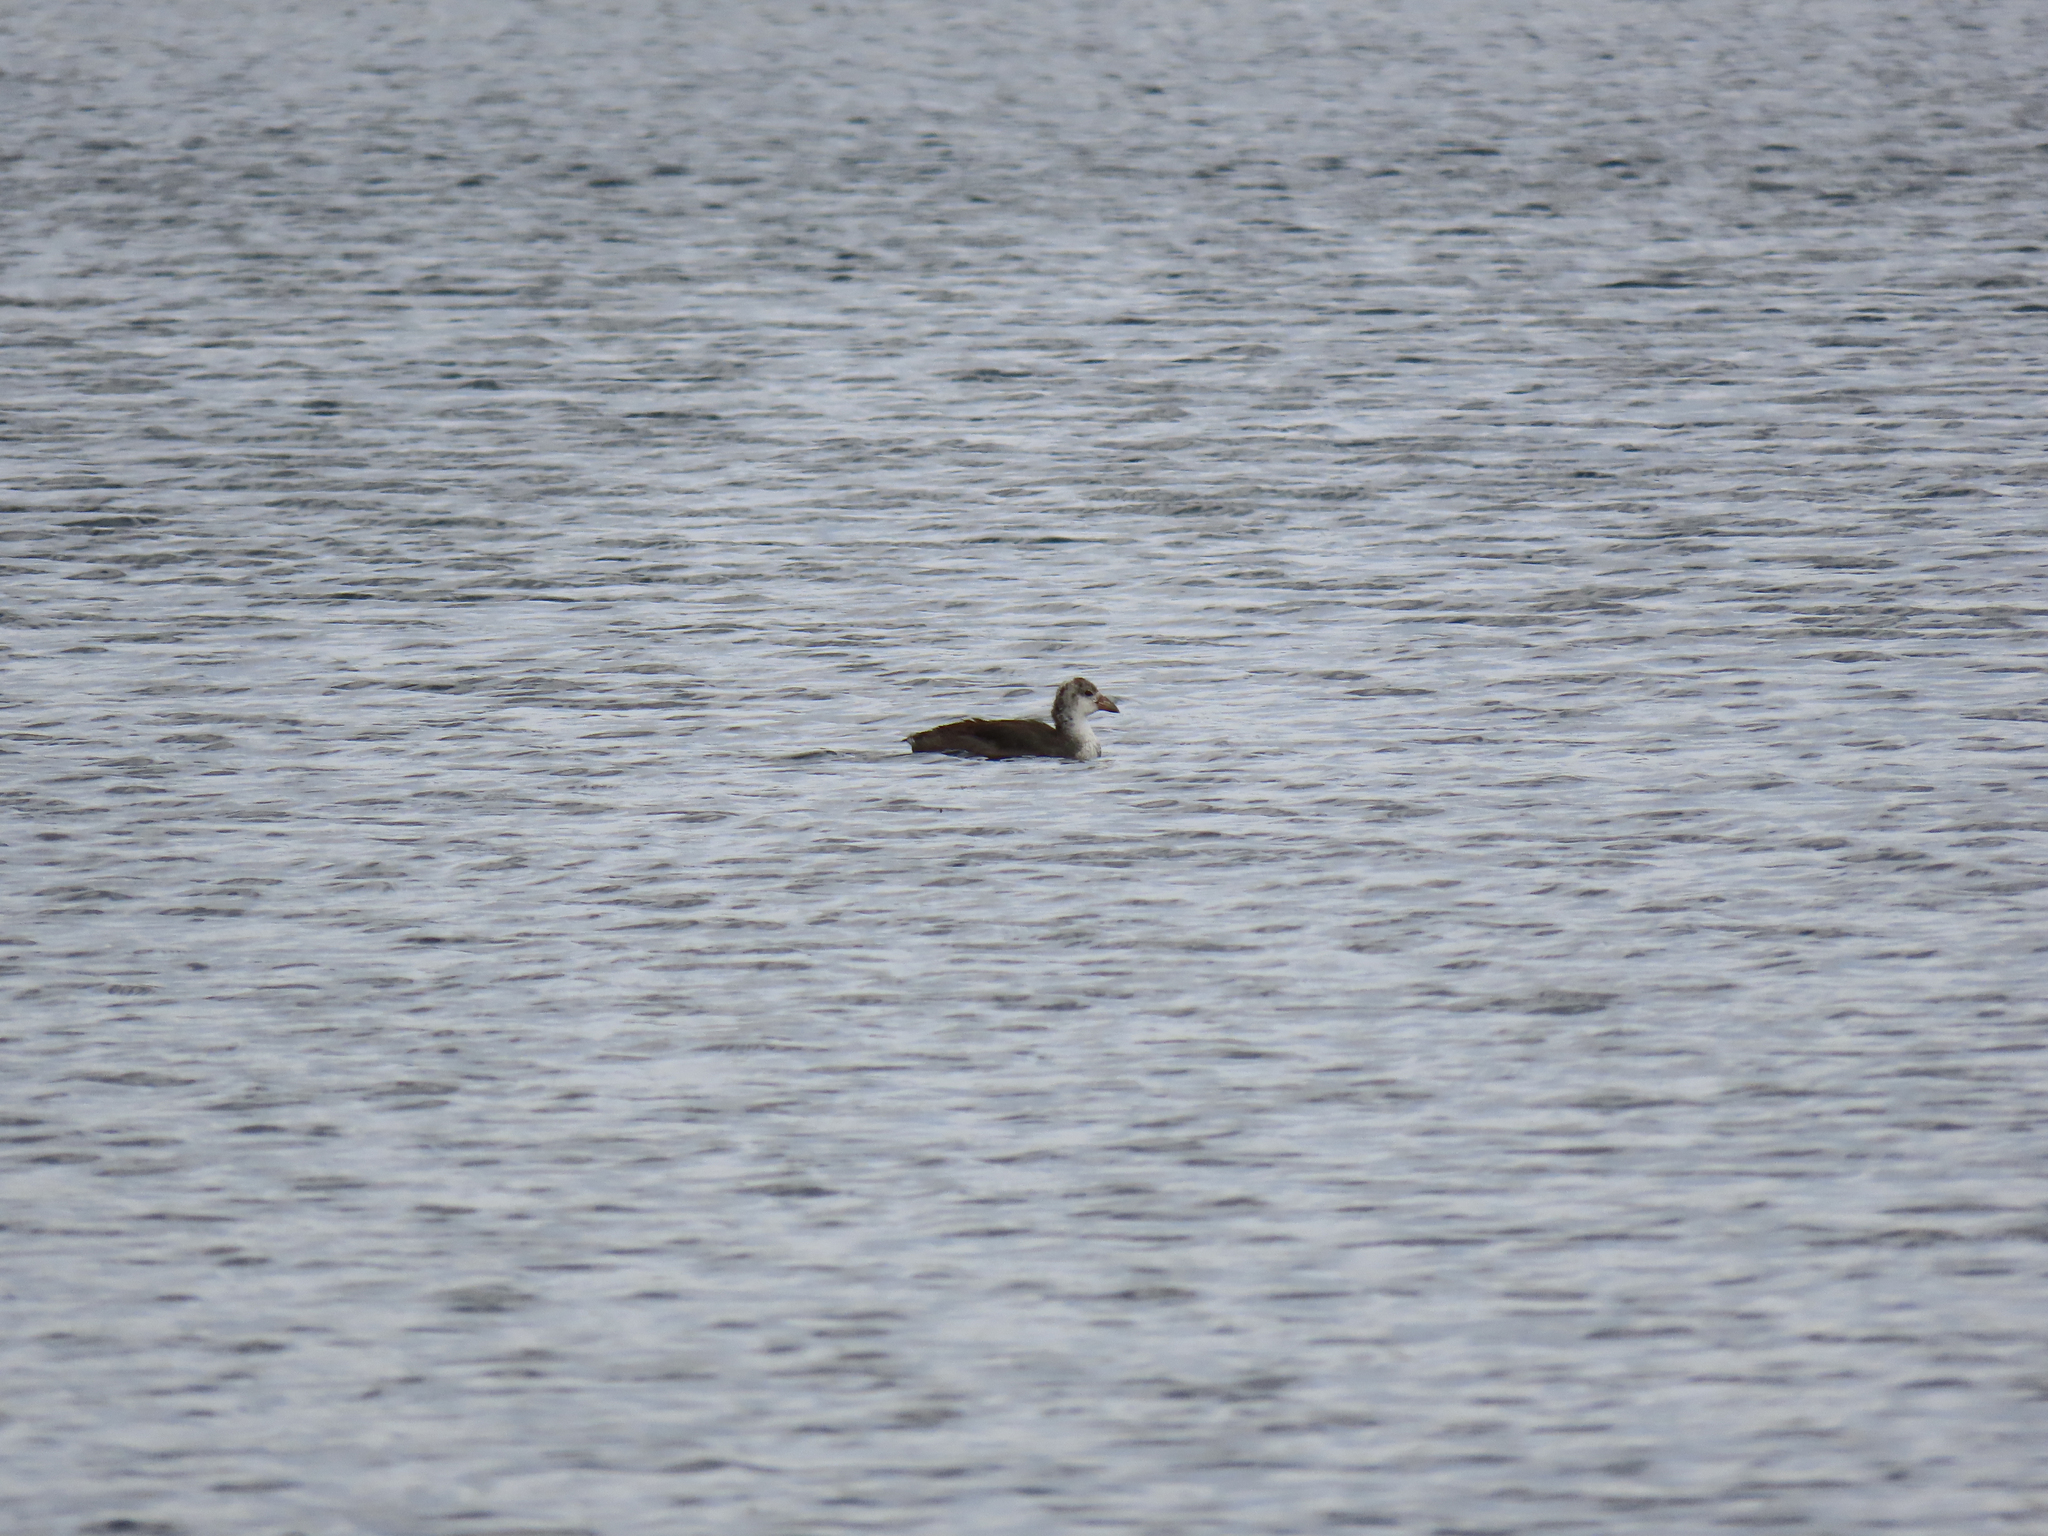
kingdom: Animalia
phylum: Chordata
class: Aves
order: Gruiformes
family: Rallidae
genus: Fulica
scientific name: Fulica americana
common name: American coot
